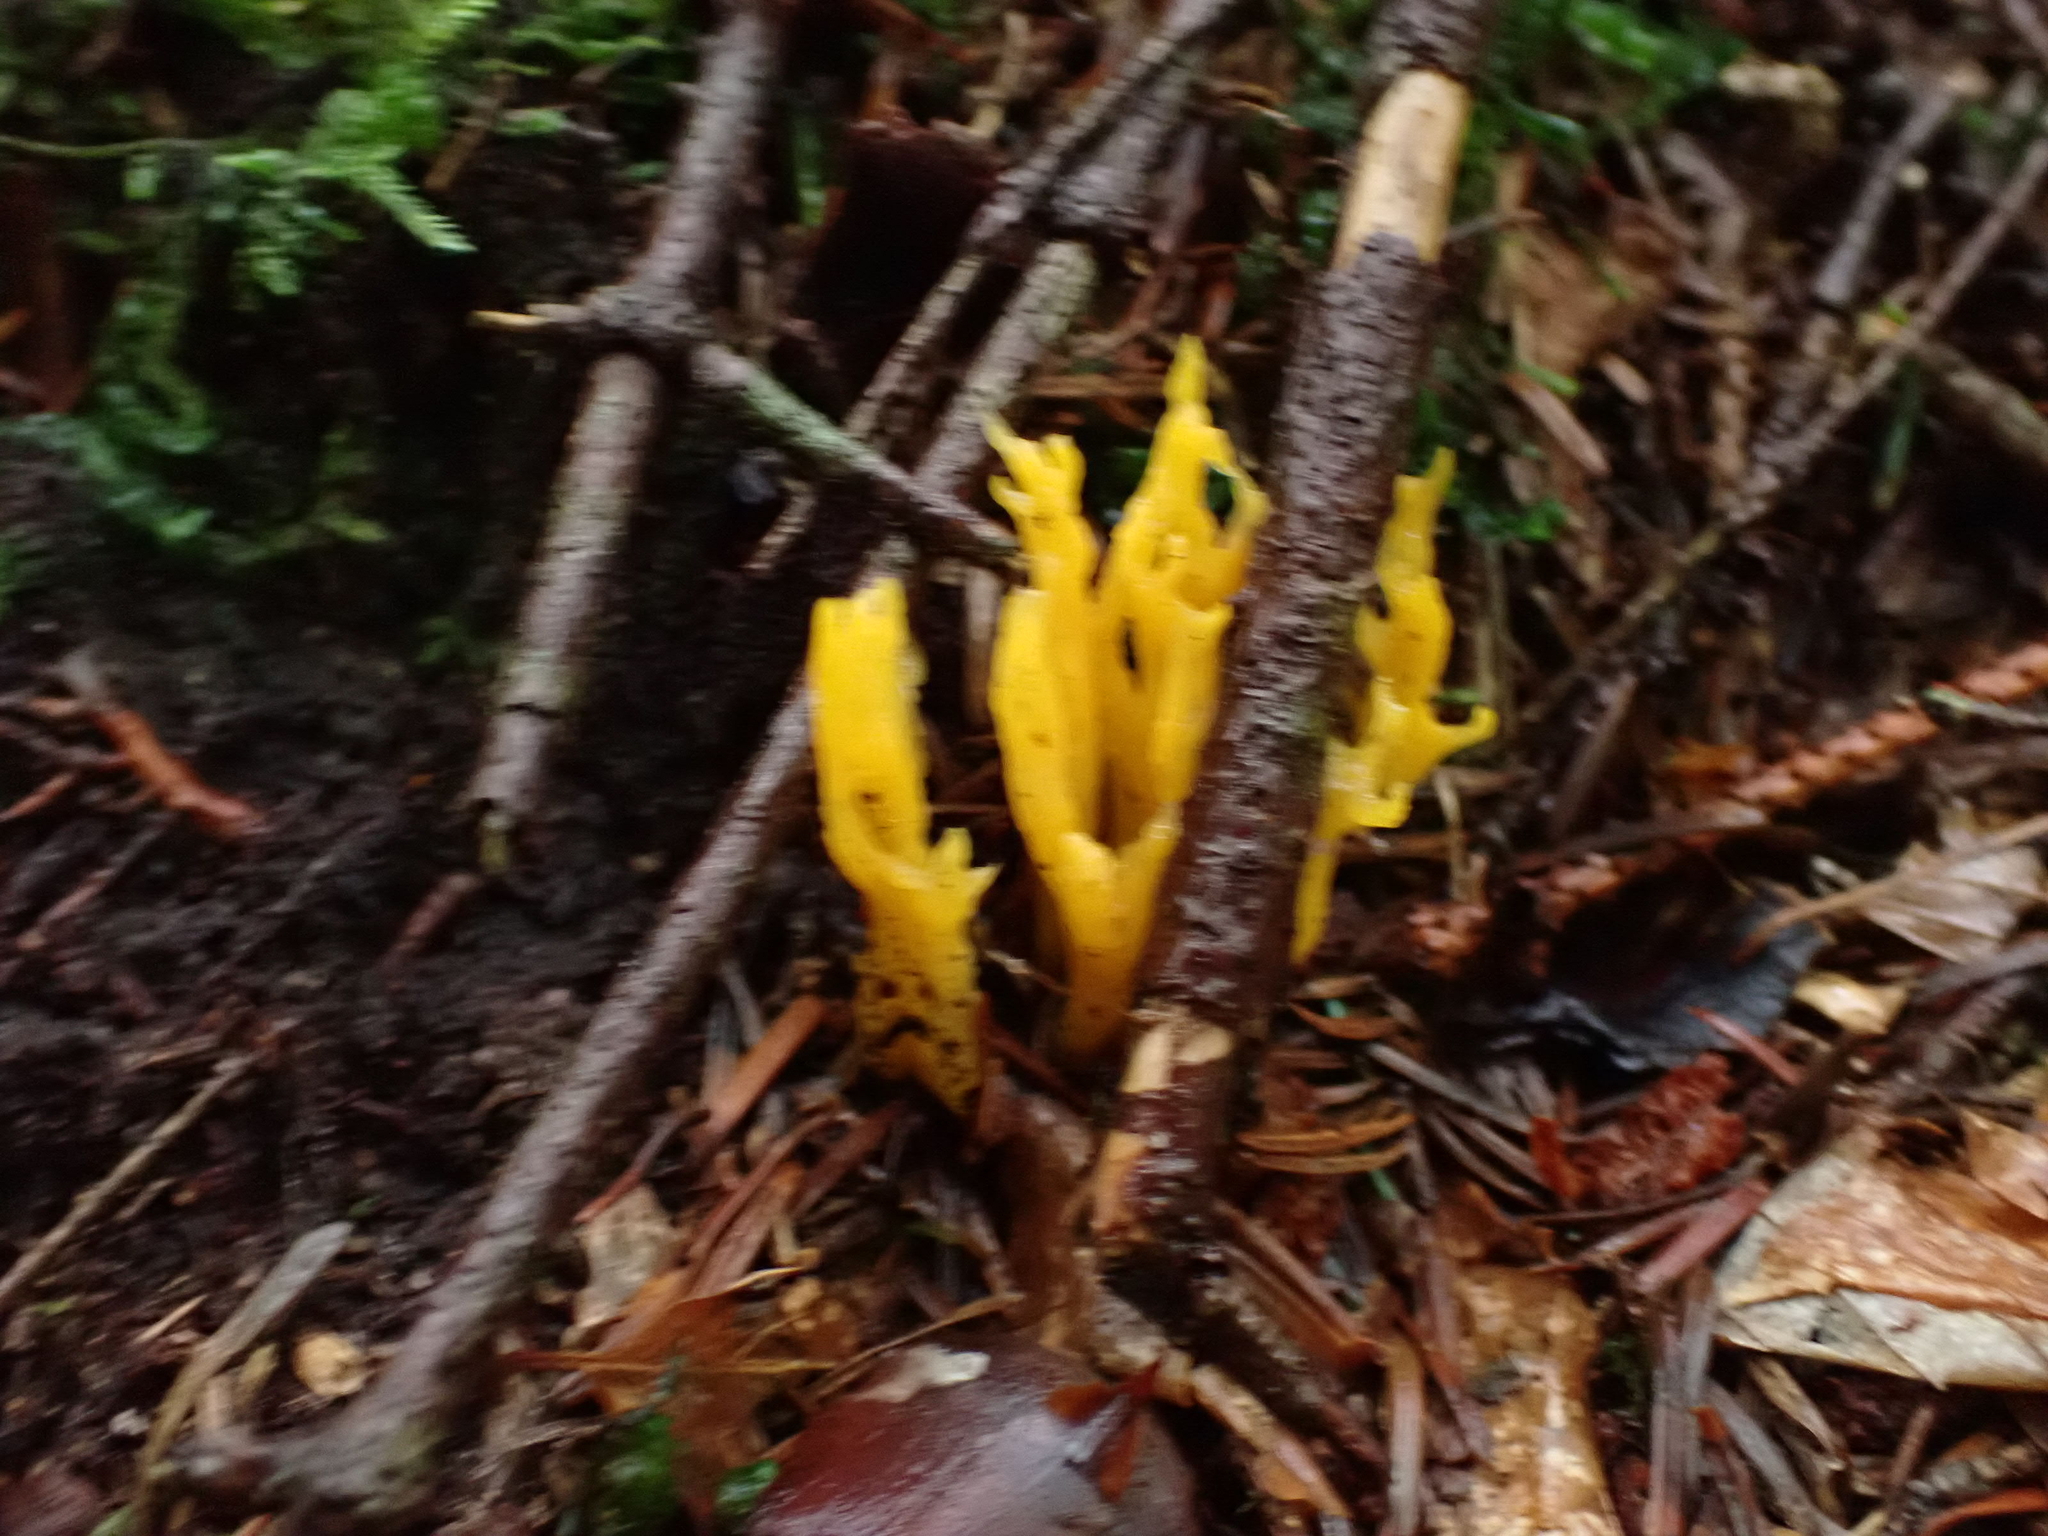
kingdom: Fungi
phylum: Basidiomycota
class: Dacrymycetes
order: Dacrymycetales
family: Dacrymycetaceae
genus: Calocera
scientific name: Calocera viscosa
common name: Yellow stagshorn
